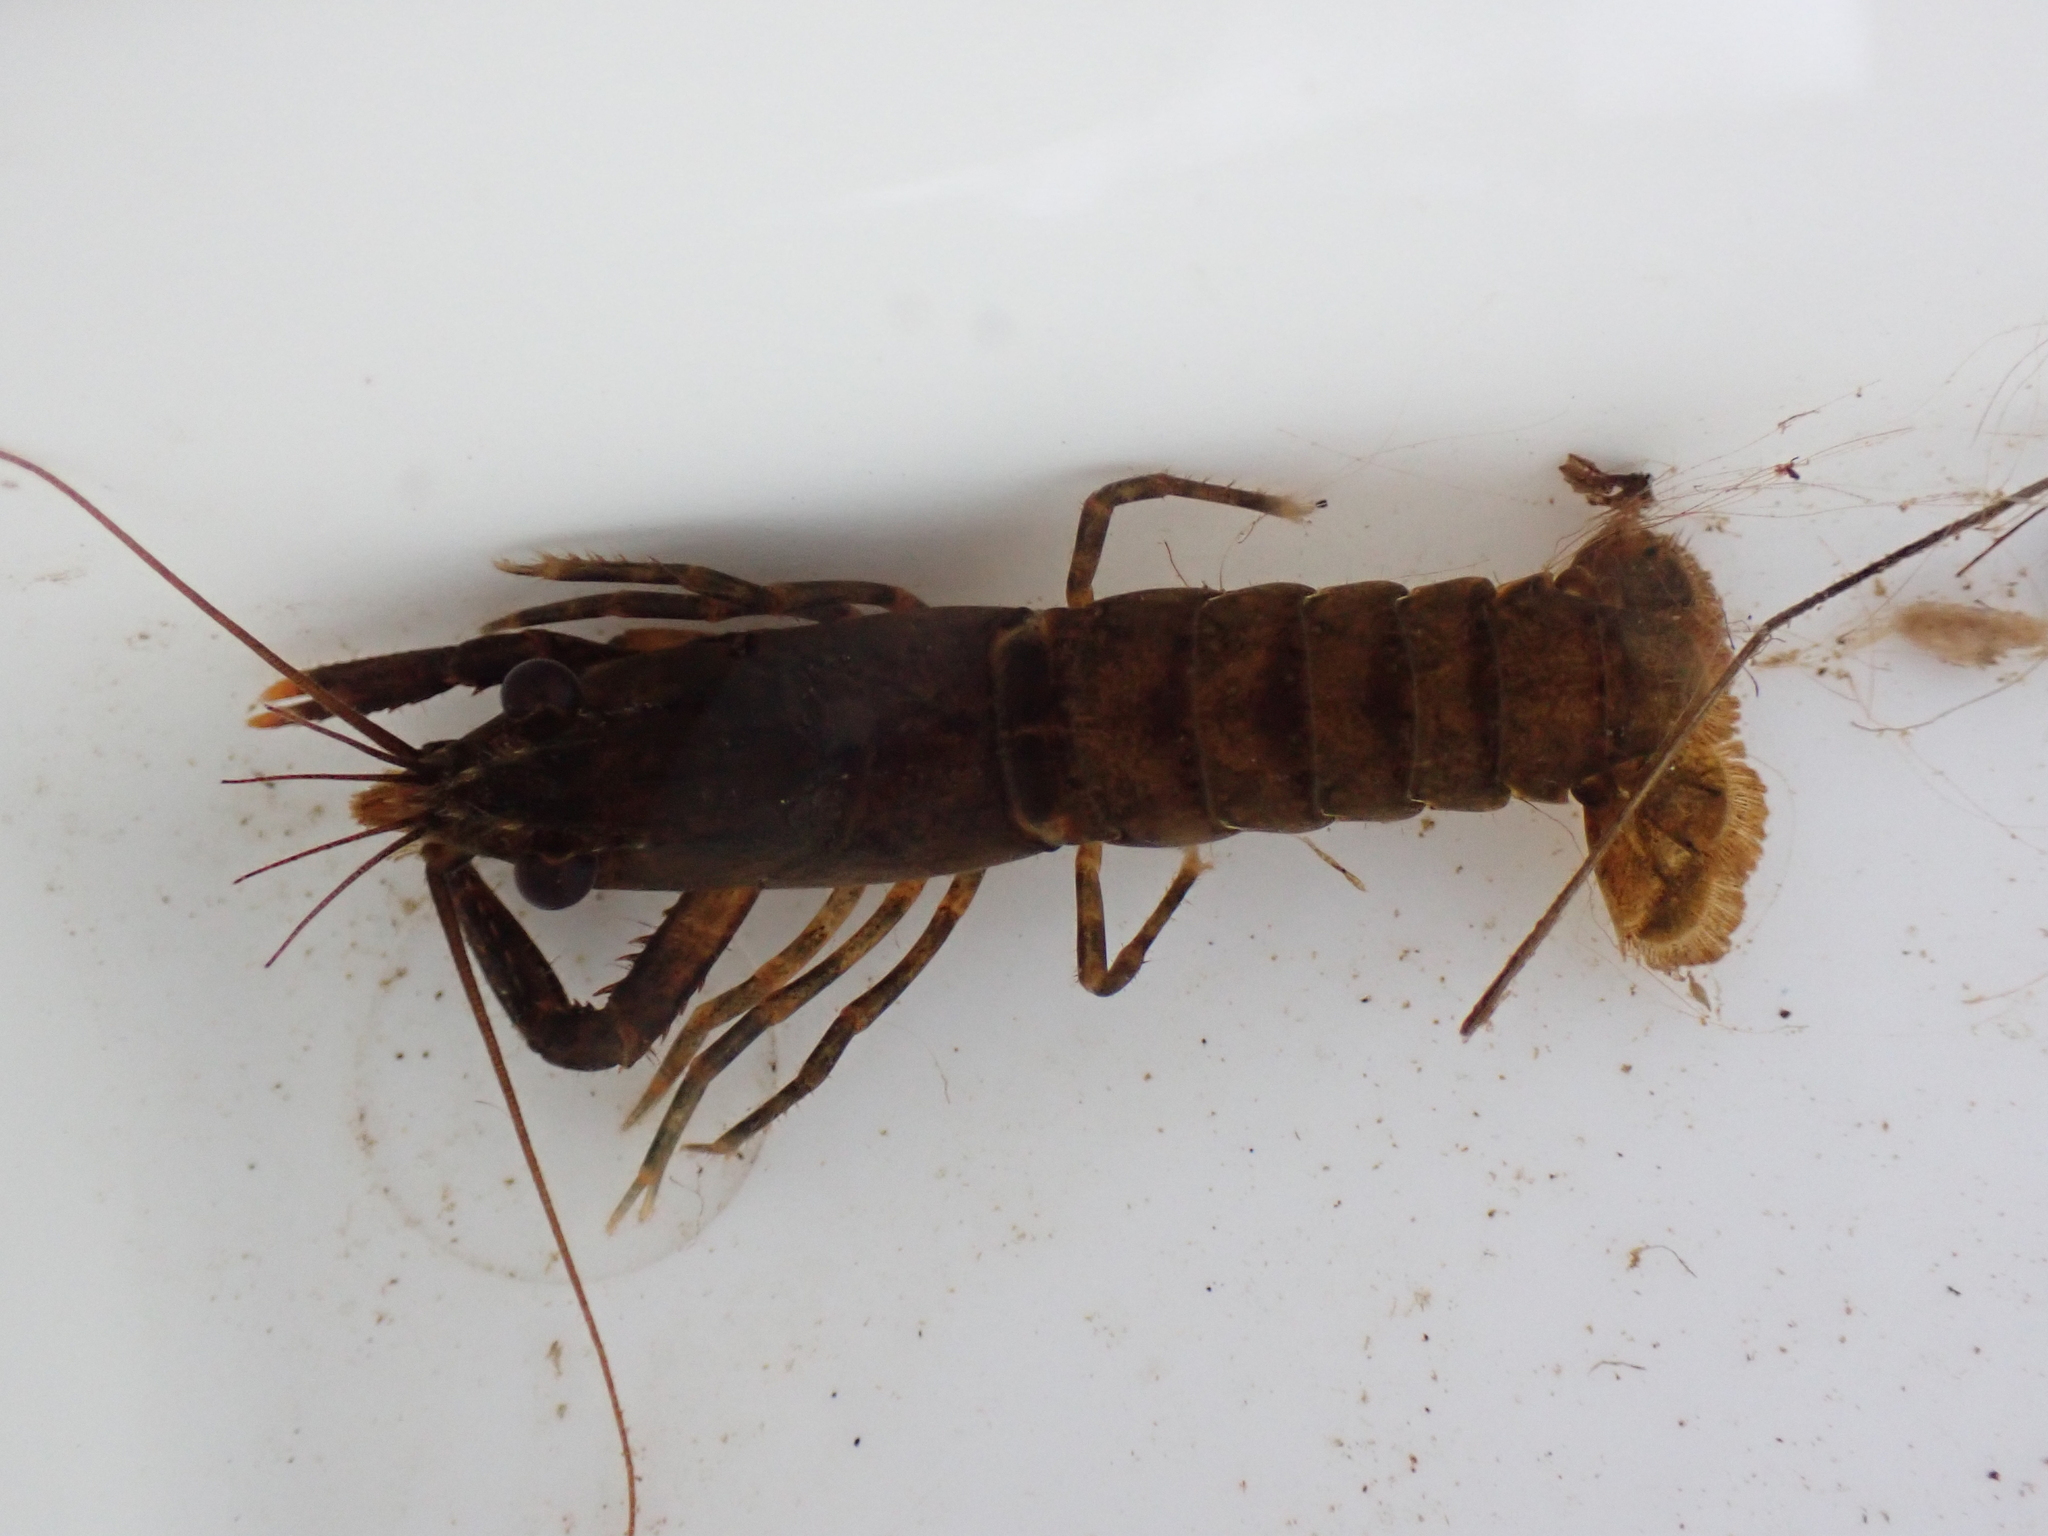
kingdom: Animalia
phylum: Arthropoda
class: Malacostraca
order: Decapoda
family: Parastacidae
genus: Paranephrops
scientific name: Paranephrops planifrons
